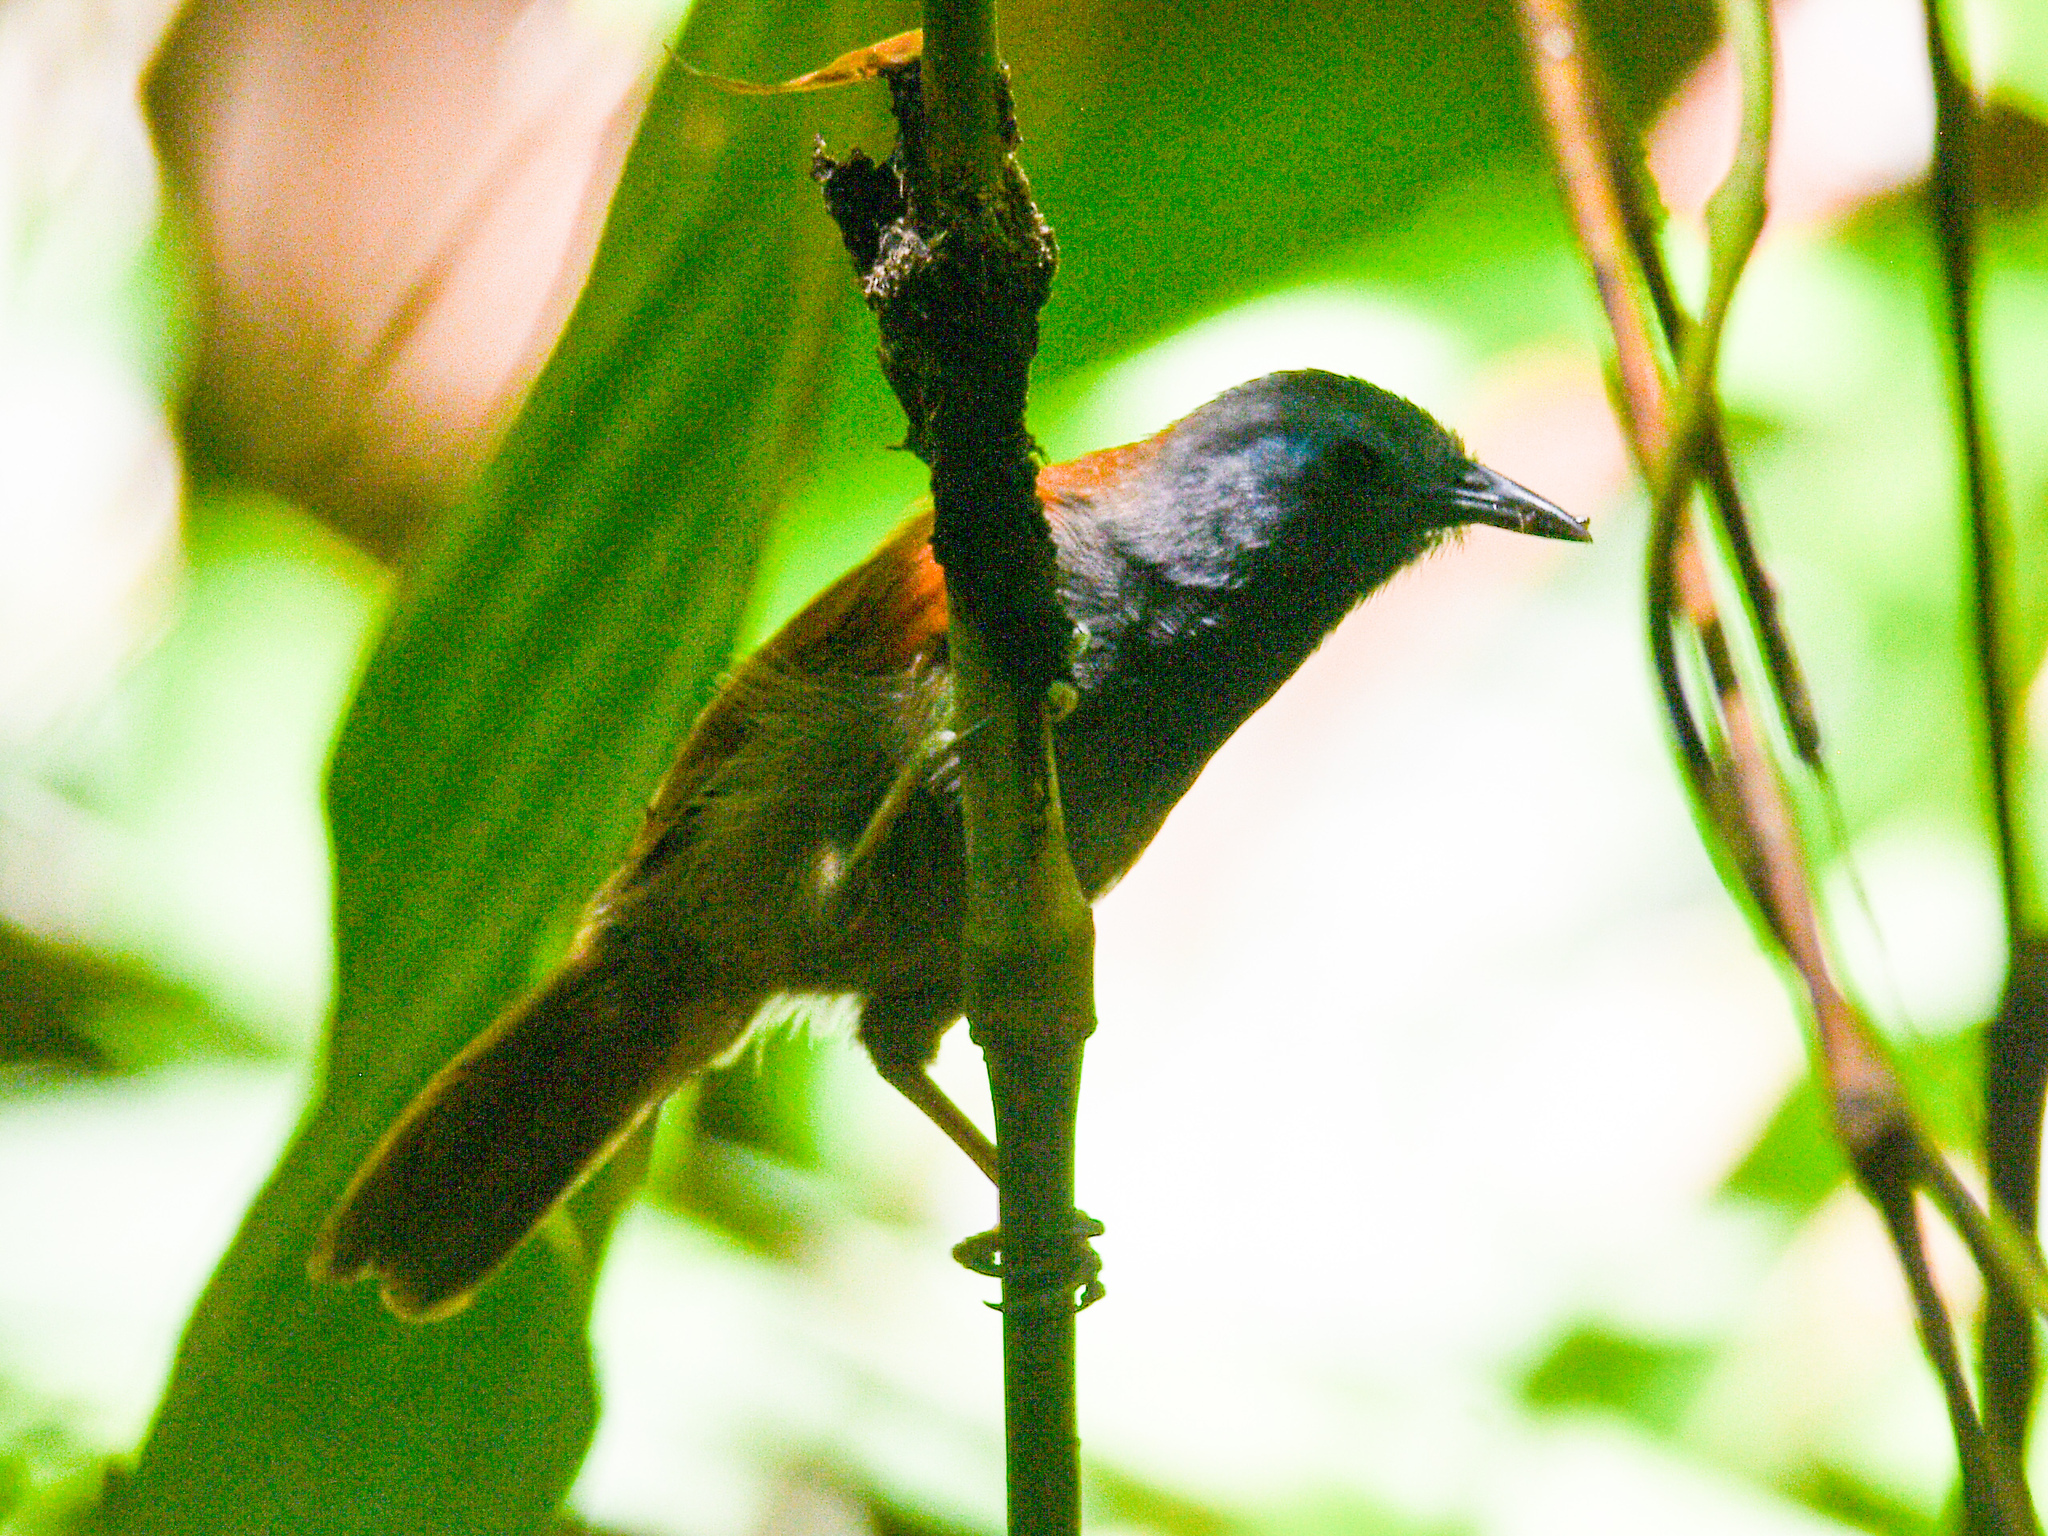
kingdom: Animalia
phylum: Chordata
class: Aves
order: Passeriformes
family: Timaliidae
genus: Stachyris
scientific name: Stachyris erythroptera
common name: Chestnut-winged babbler
